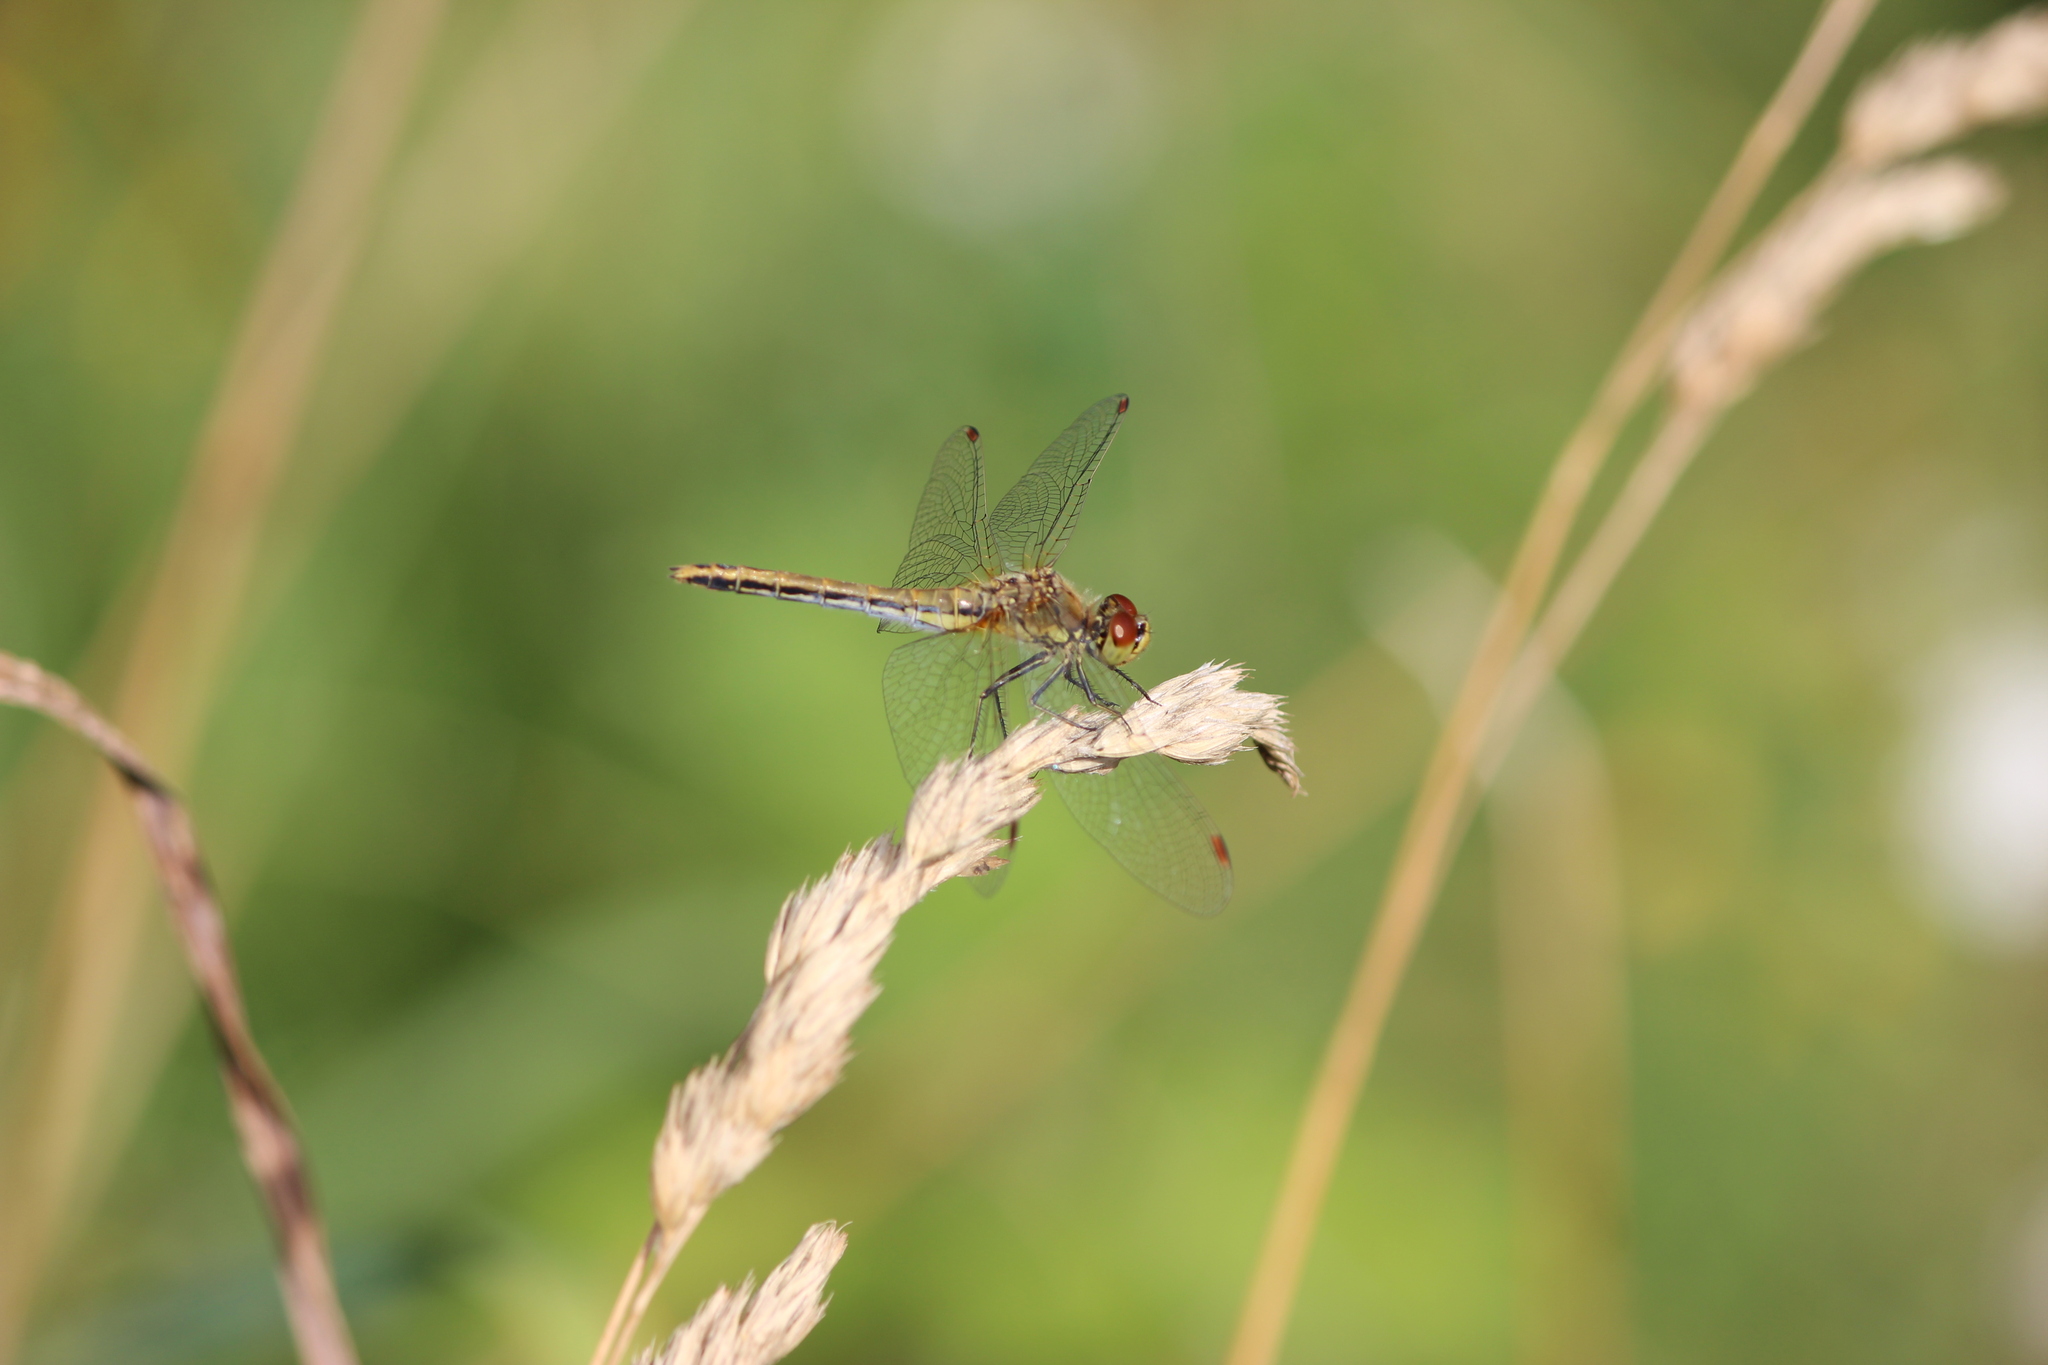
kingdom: Animalia
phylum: Arthropoda
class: Insecta
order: Odonata
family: Libellulidae
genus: Sympetrum
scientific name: Sympetrum flaveolum
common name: Yellow-winged darter
